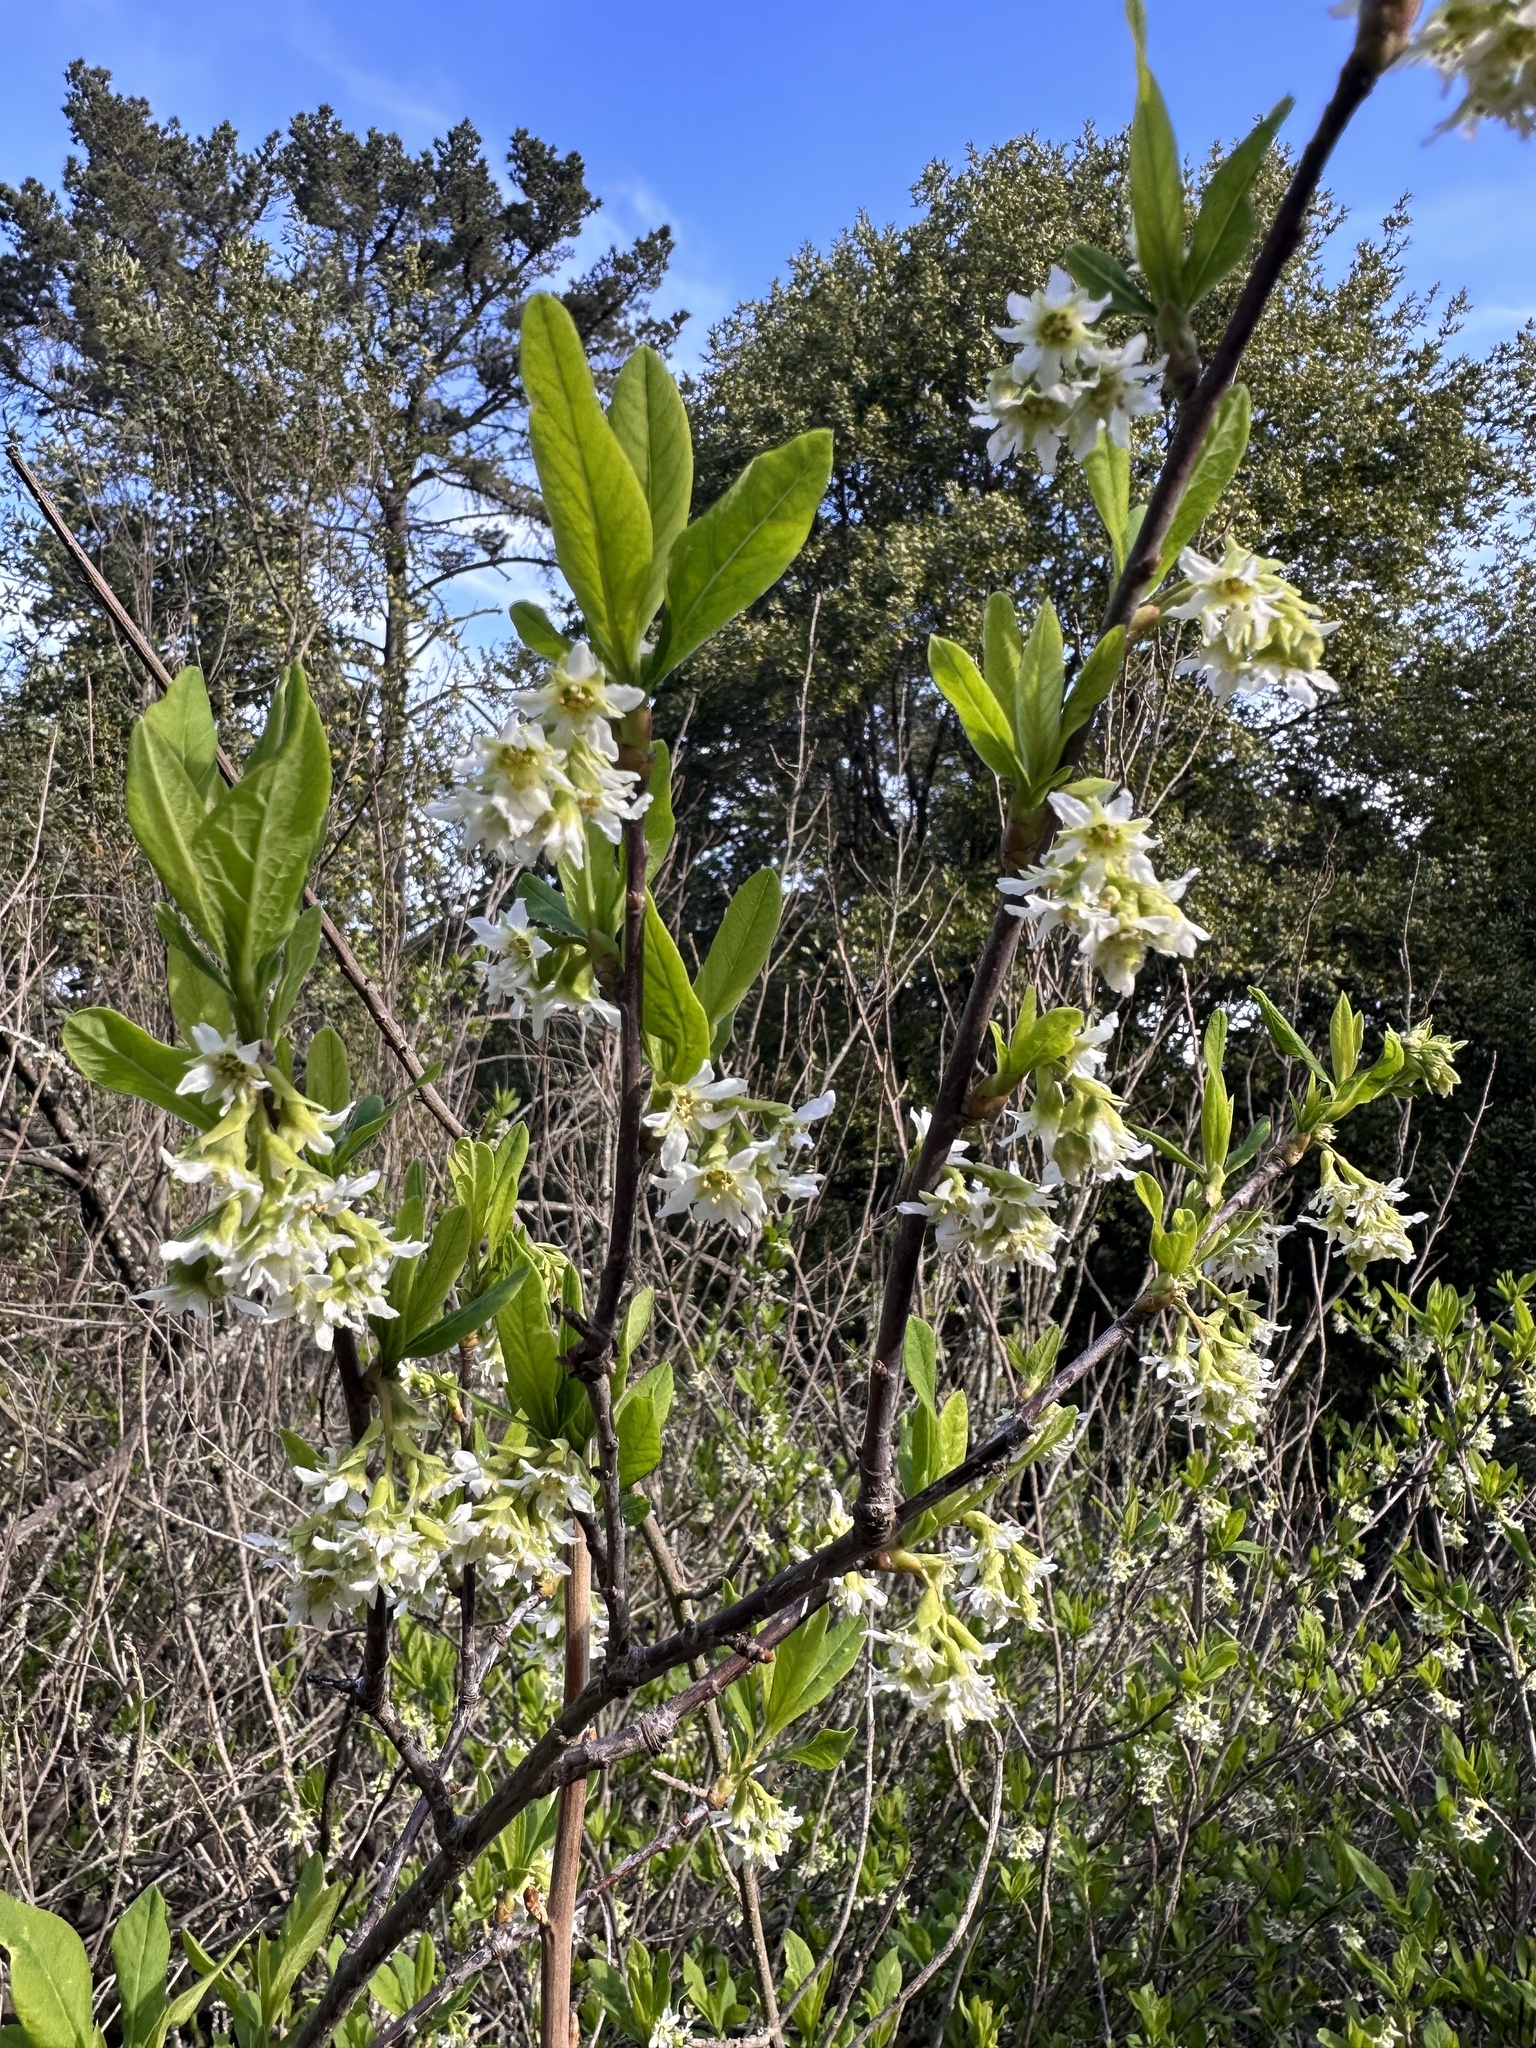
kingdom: Plantae
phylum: Tracheophyta
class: Magnoliopsida
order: Rosales
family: Rosaceae
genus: Oemleria
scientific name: Oemleria cerasiformis
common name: Osoberry
